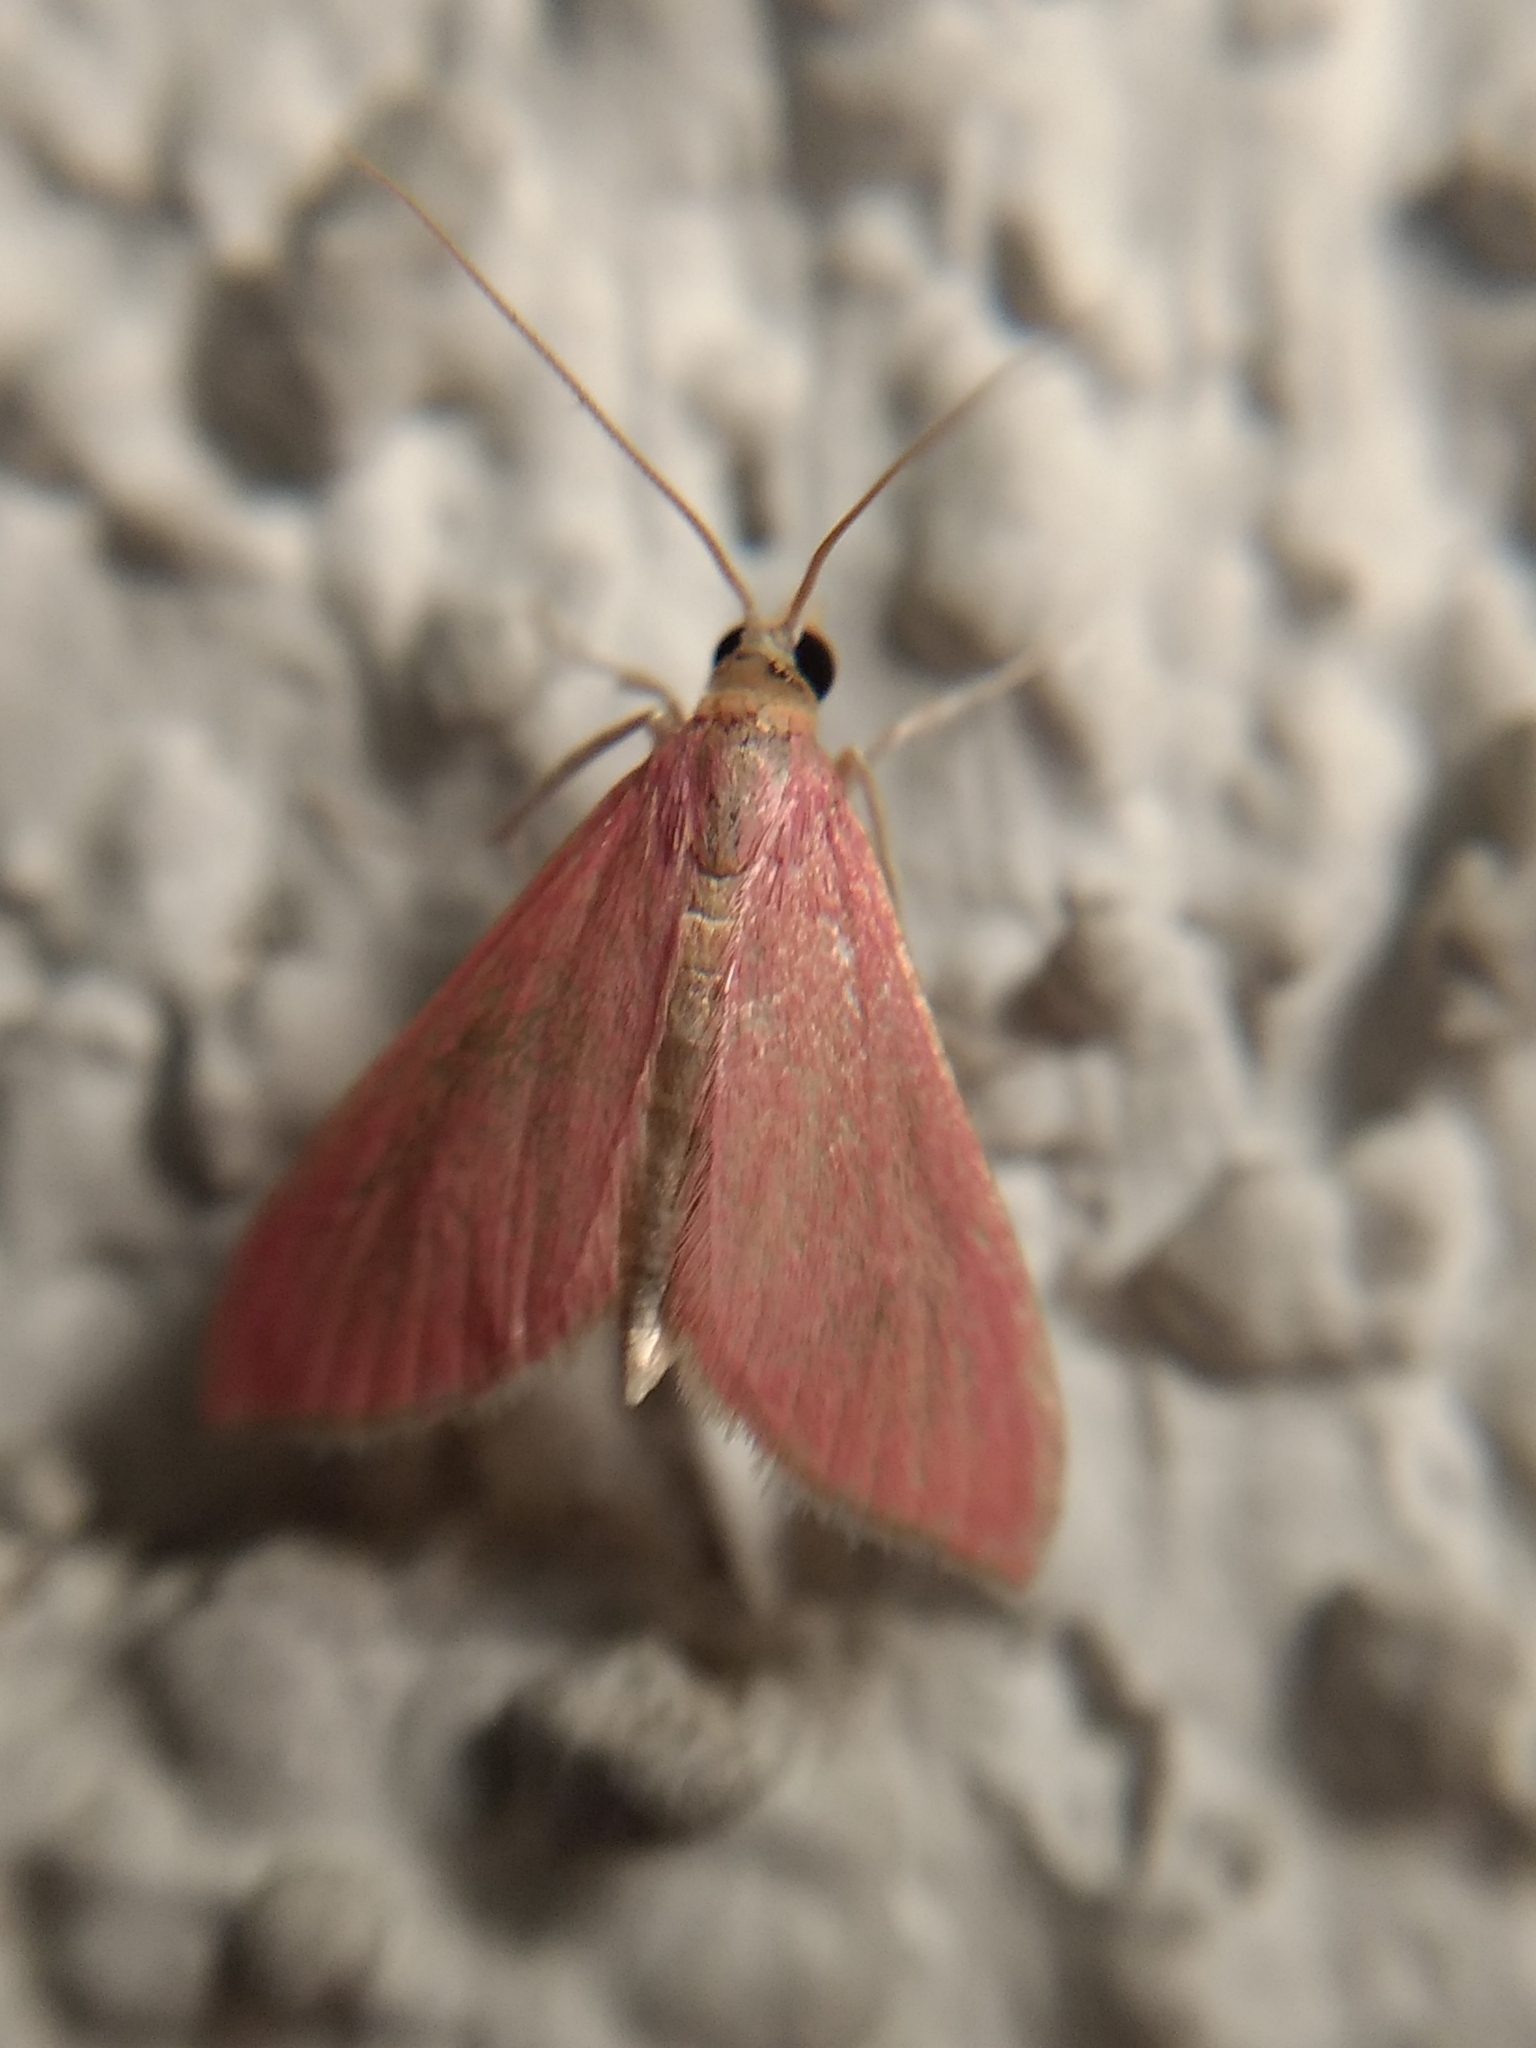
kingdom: Animalia
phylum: Arthropoda
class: Insecta
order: Lepidoptera
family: Crambidae
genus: Pyrausta
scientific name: Pyrausta inornatalis
